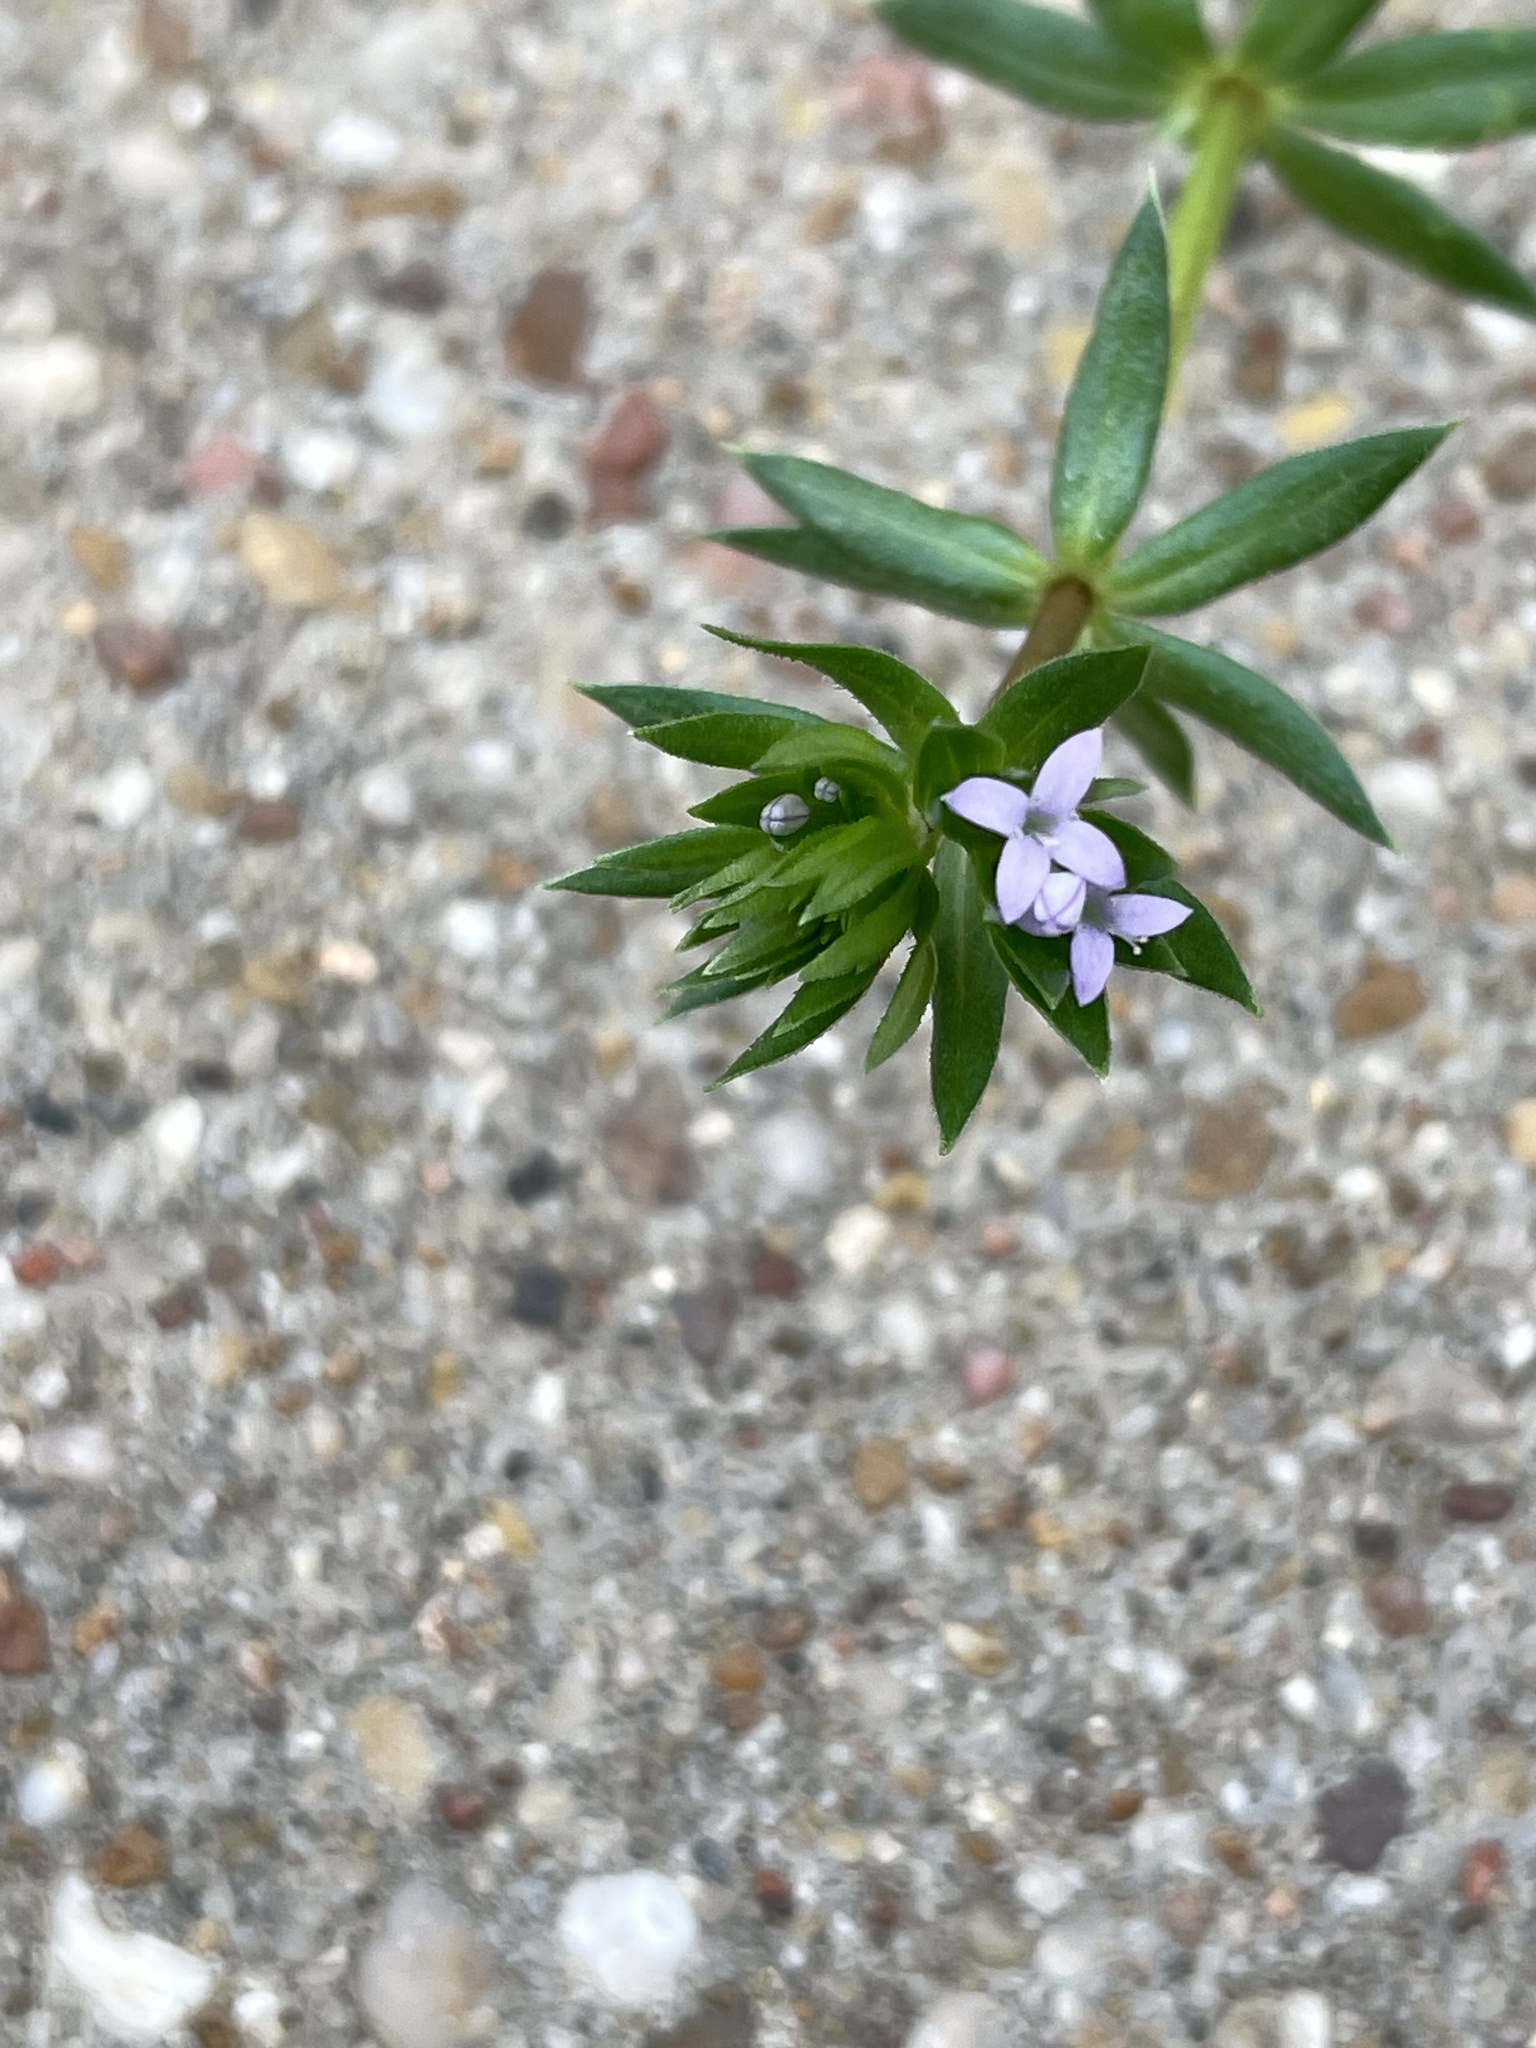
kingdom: Plantae
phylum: Tracheophyta
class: Magnoliopsida
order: Gentianales
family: Rubiaceae
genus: Sherardia
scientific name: Sherardia arvensis
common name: Field madder
